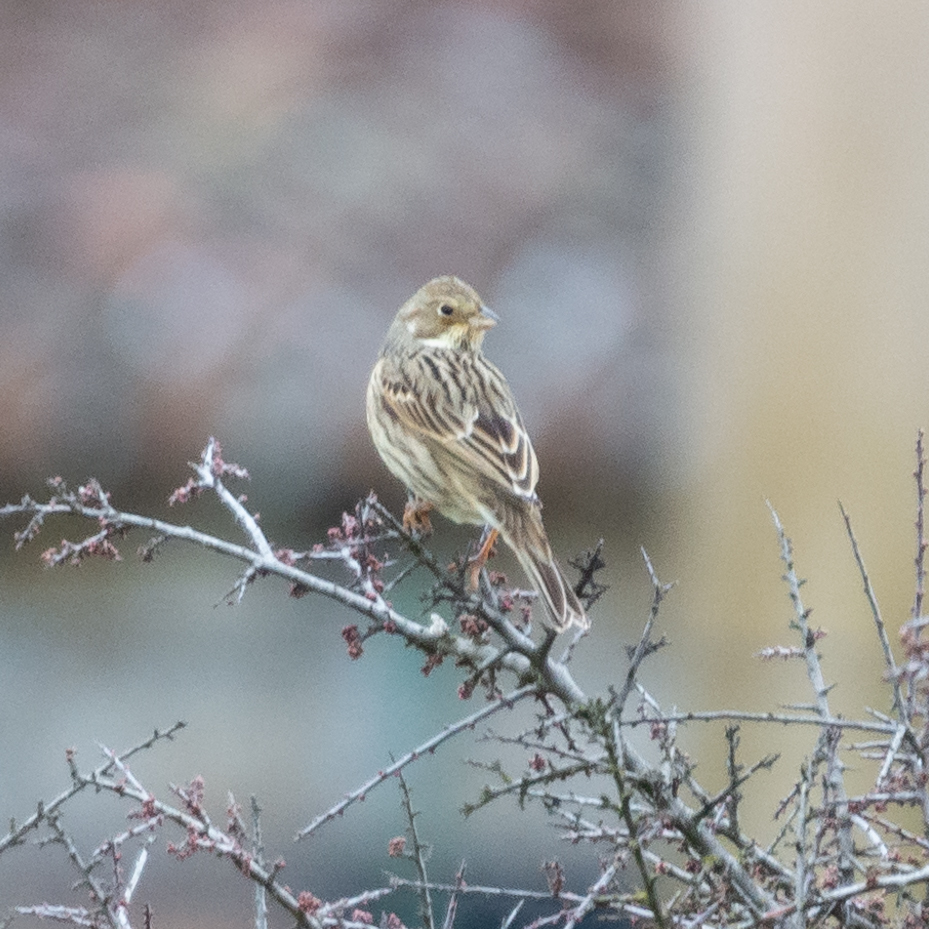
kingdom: Animalia
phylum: Chordata
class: Aves
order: Passeriformes
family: Emberizidae
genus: Emberiza
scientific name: Emberiza calandra
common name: Corn bunting
